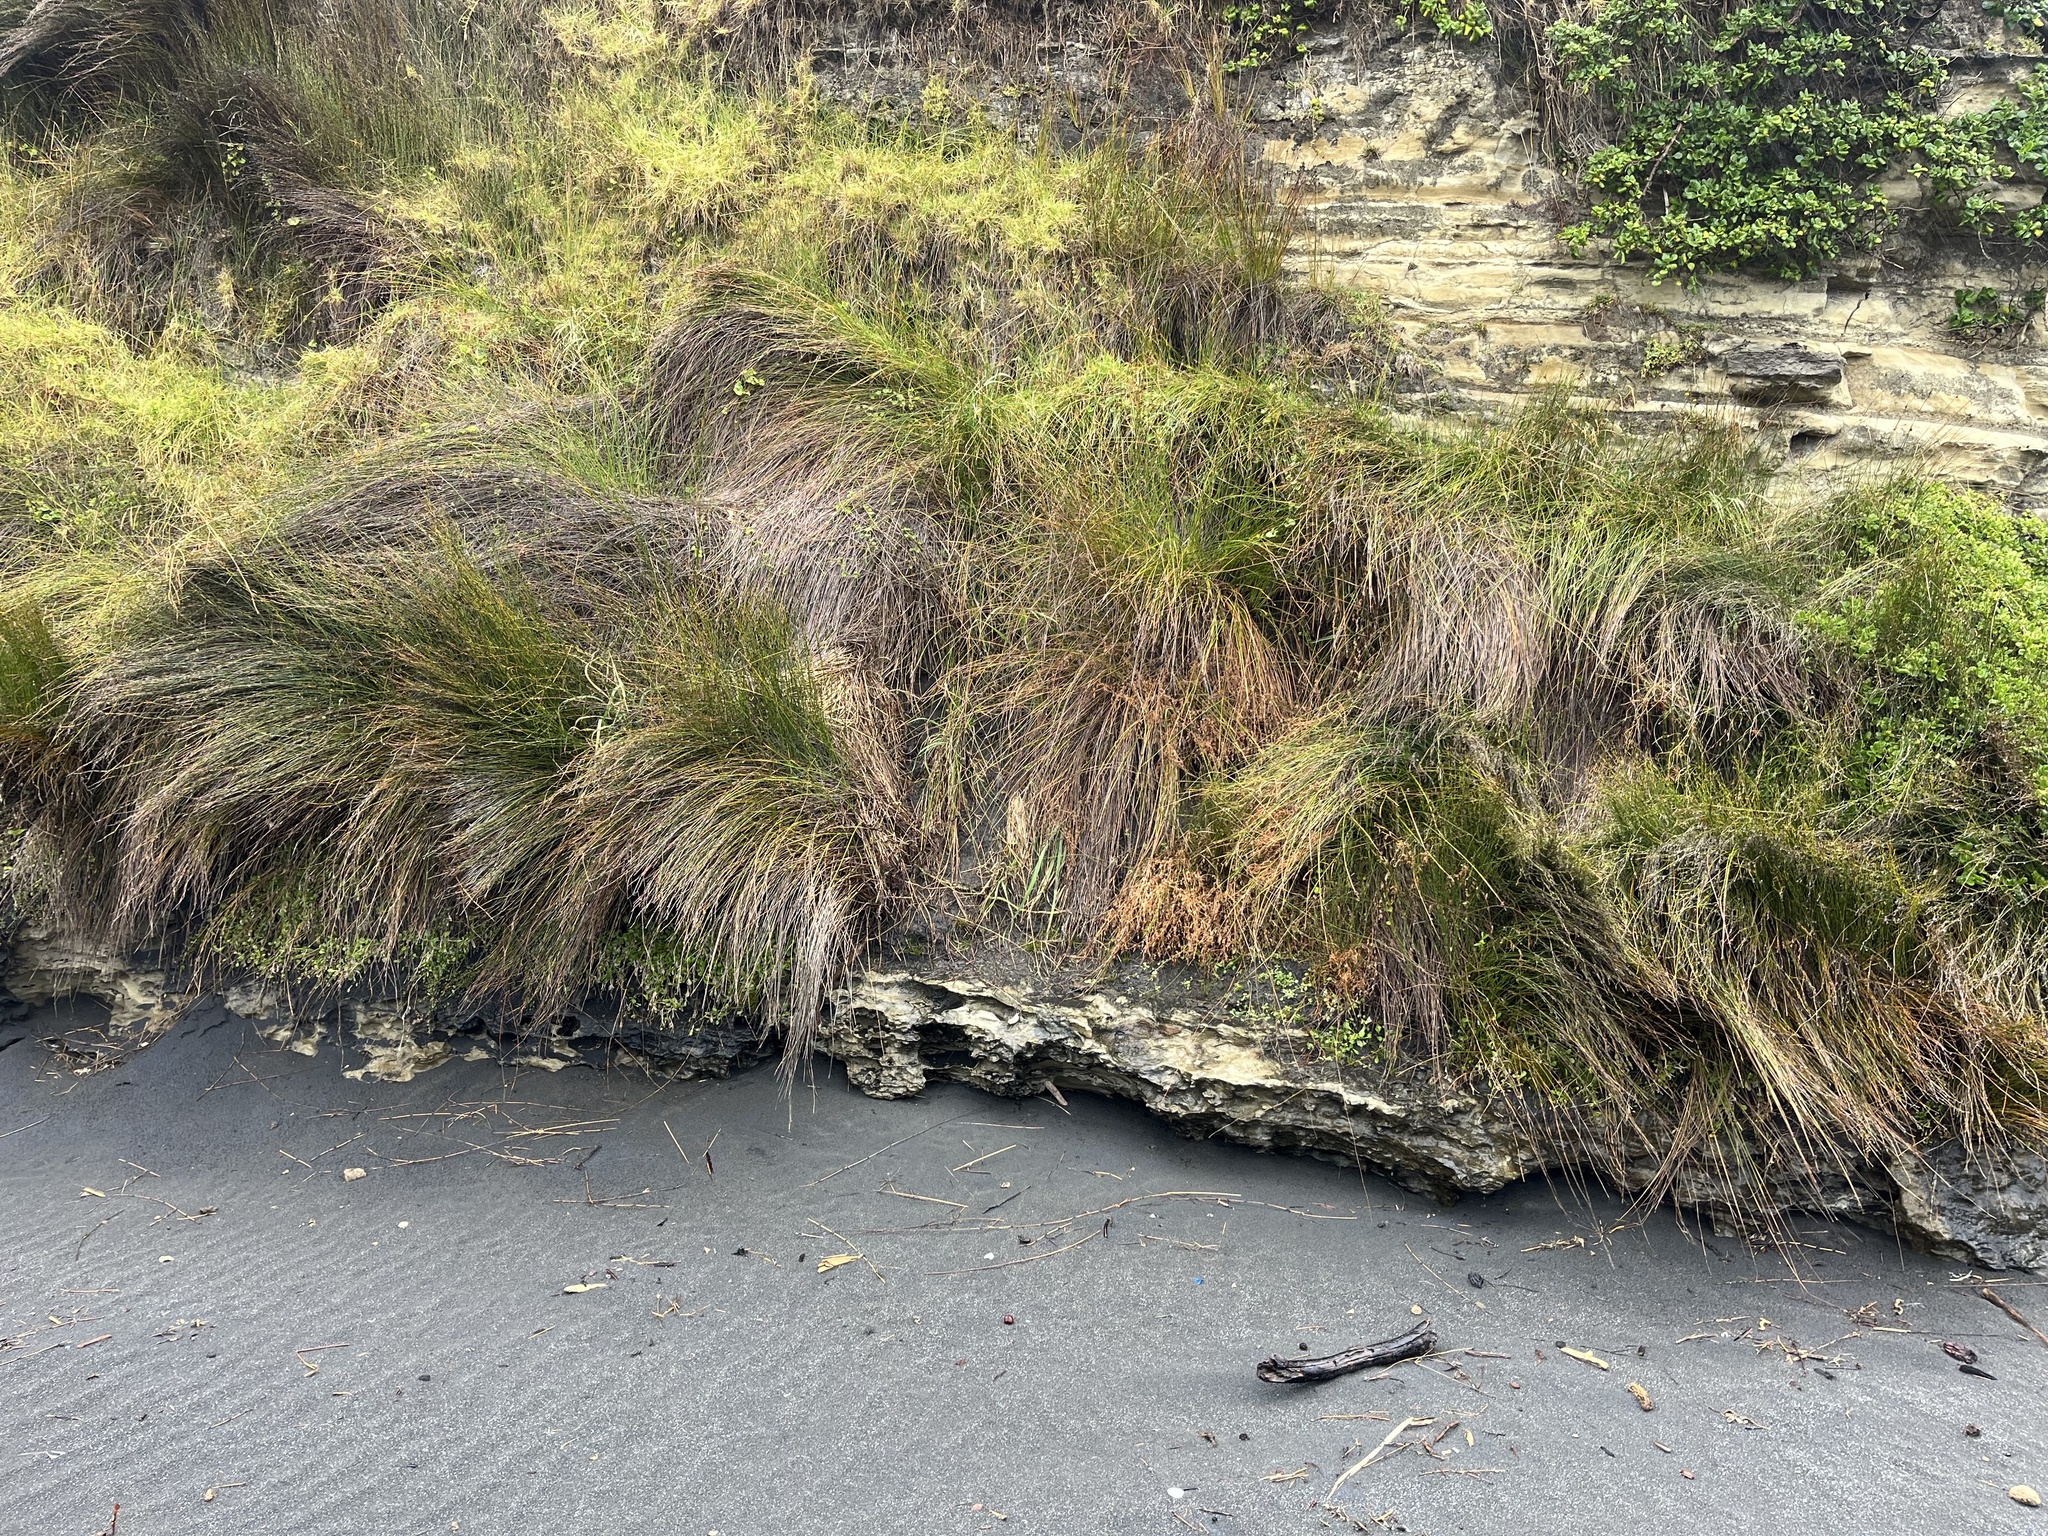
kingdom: Plantae
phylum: Tracheophyta
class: Liliopsida
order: Poales
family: Restionaceae
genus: Apodasmia
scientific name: Apodasmia similis
